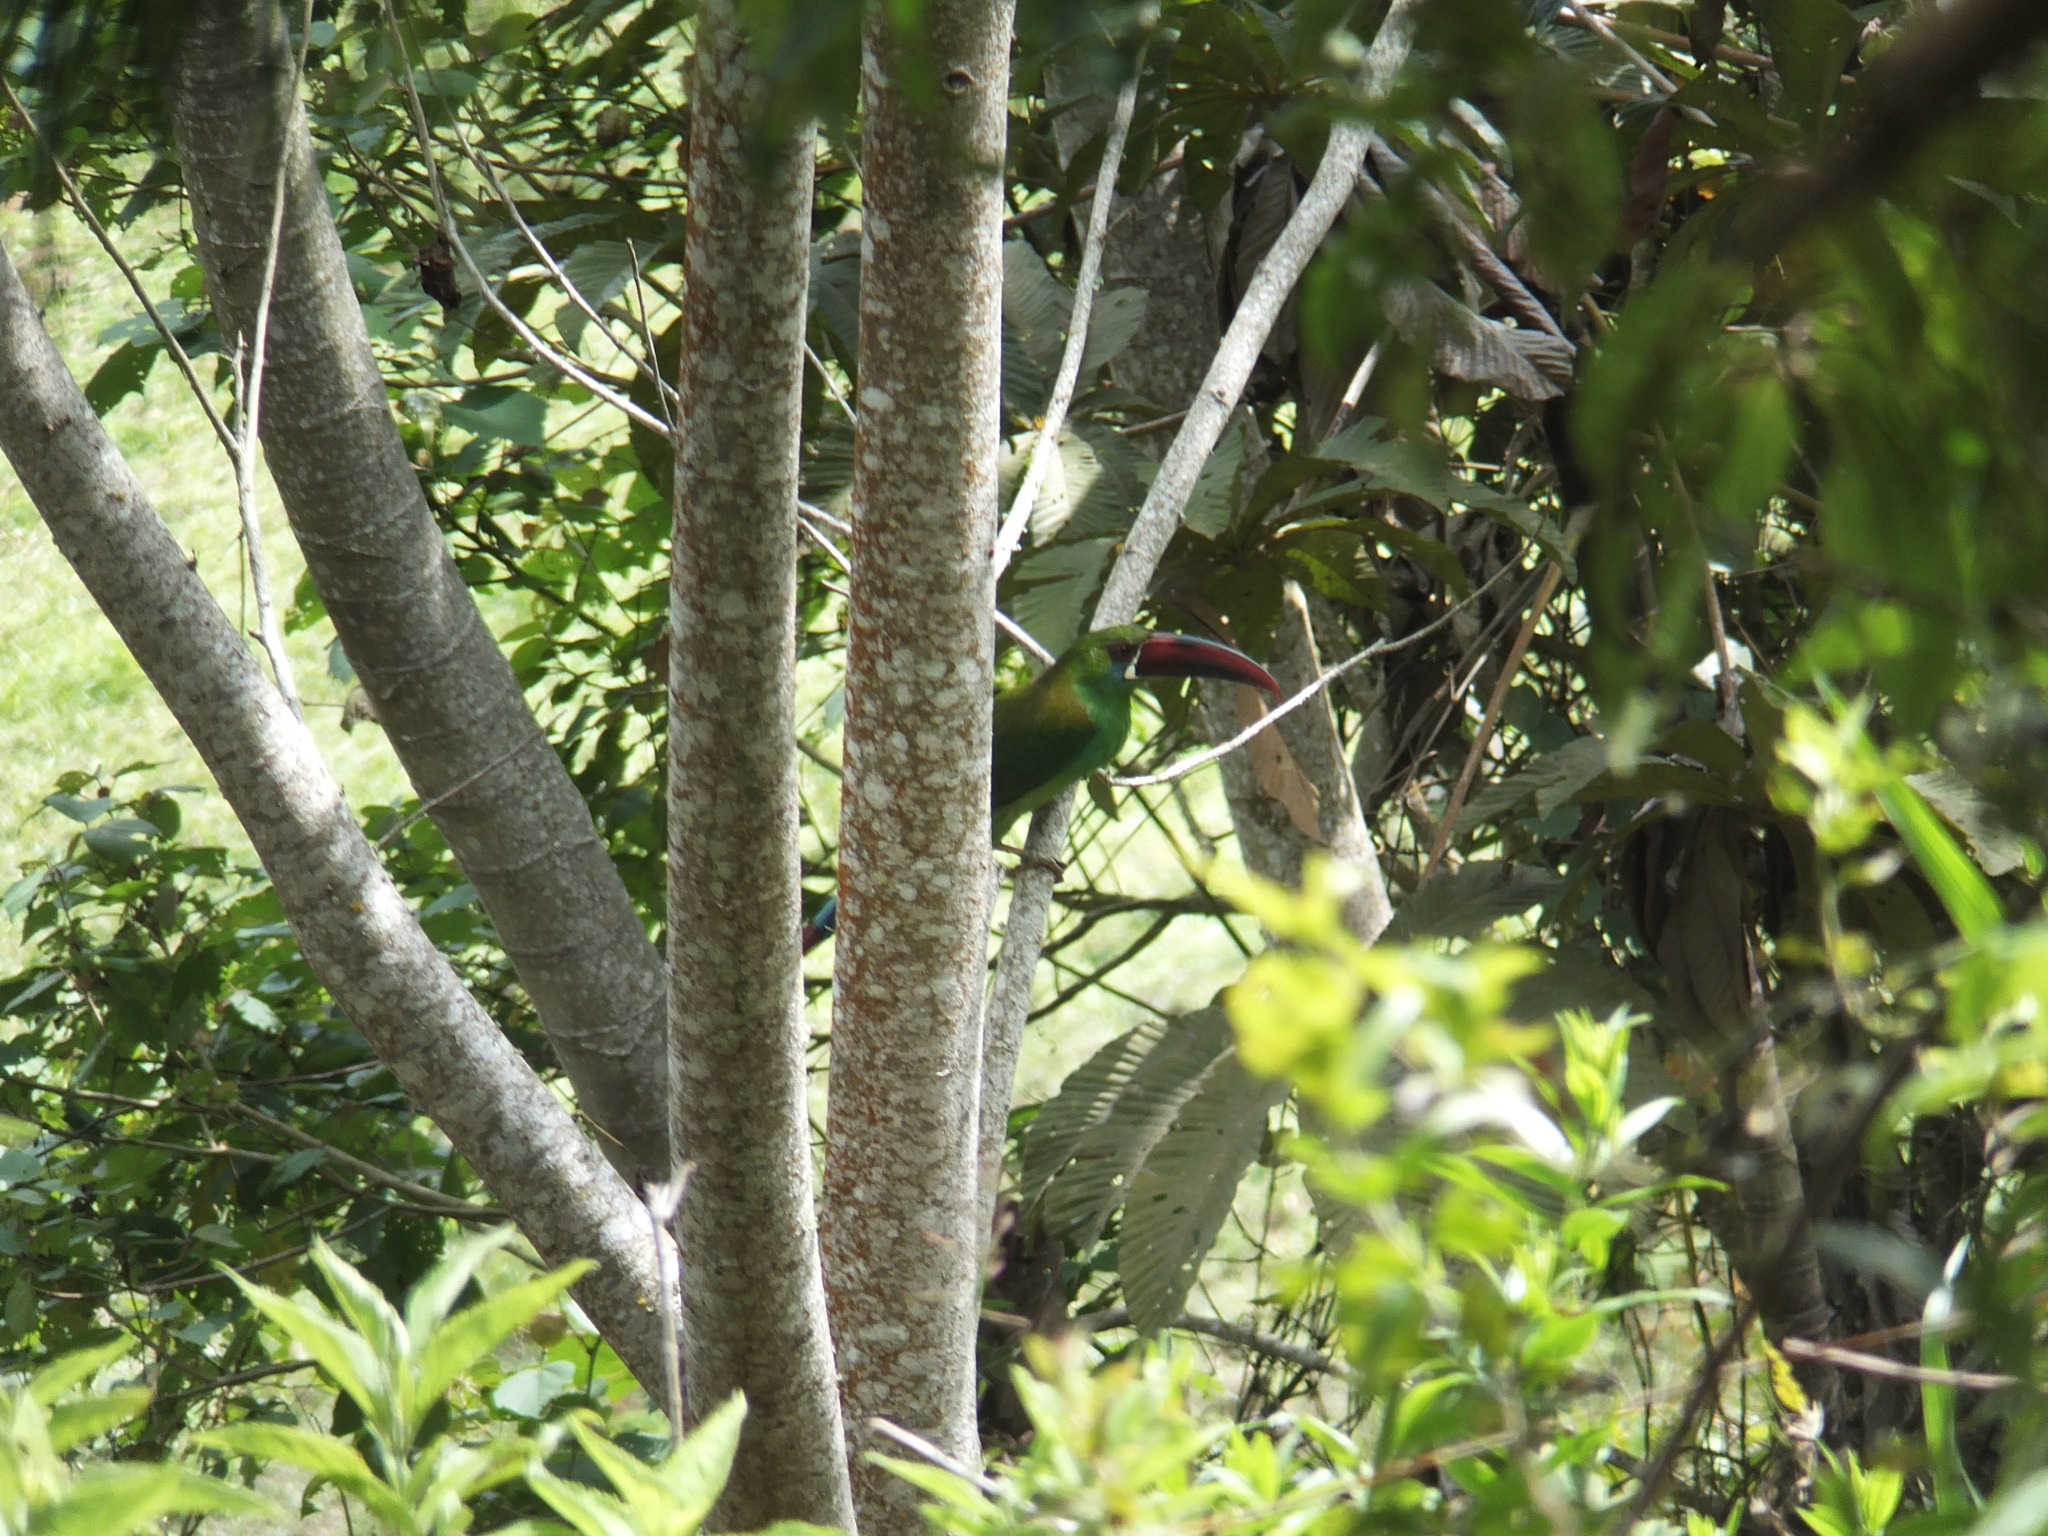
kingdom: Animalia
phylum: Chordata
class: Aves
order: Piciformes
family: Ramphastidae
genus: Aulacorhynchus
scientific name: Aulacorhynchus haematopygus
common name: Crimson-rumped toucanet
